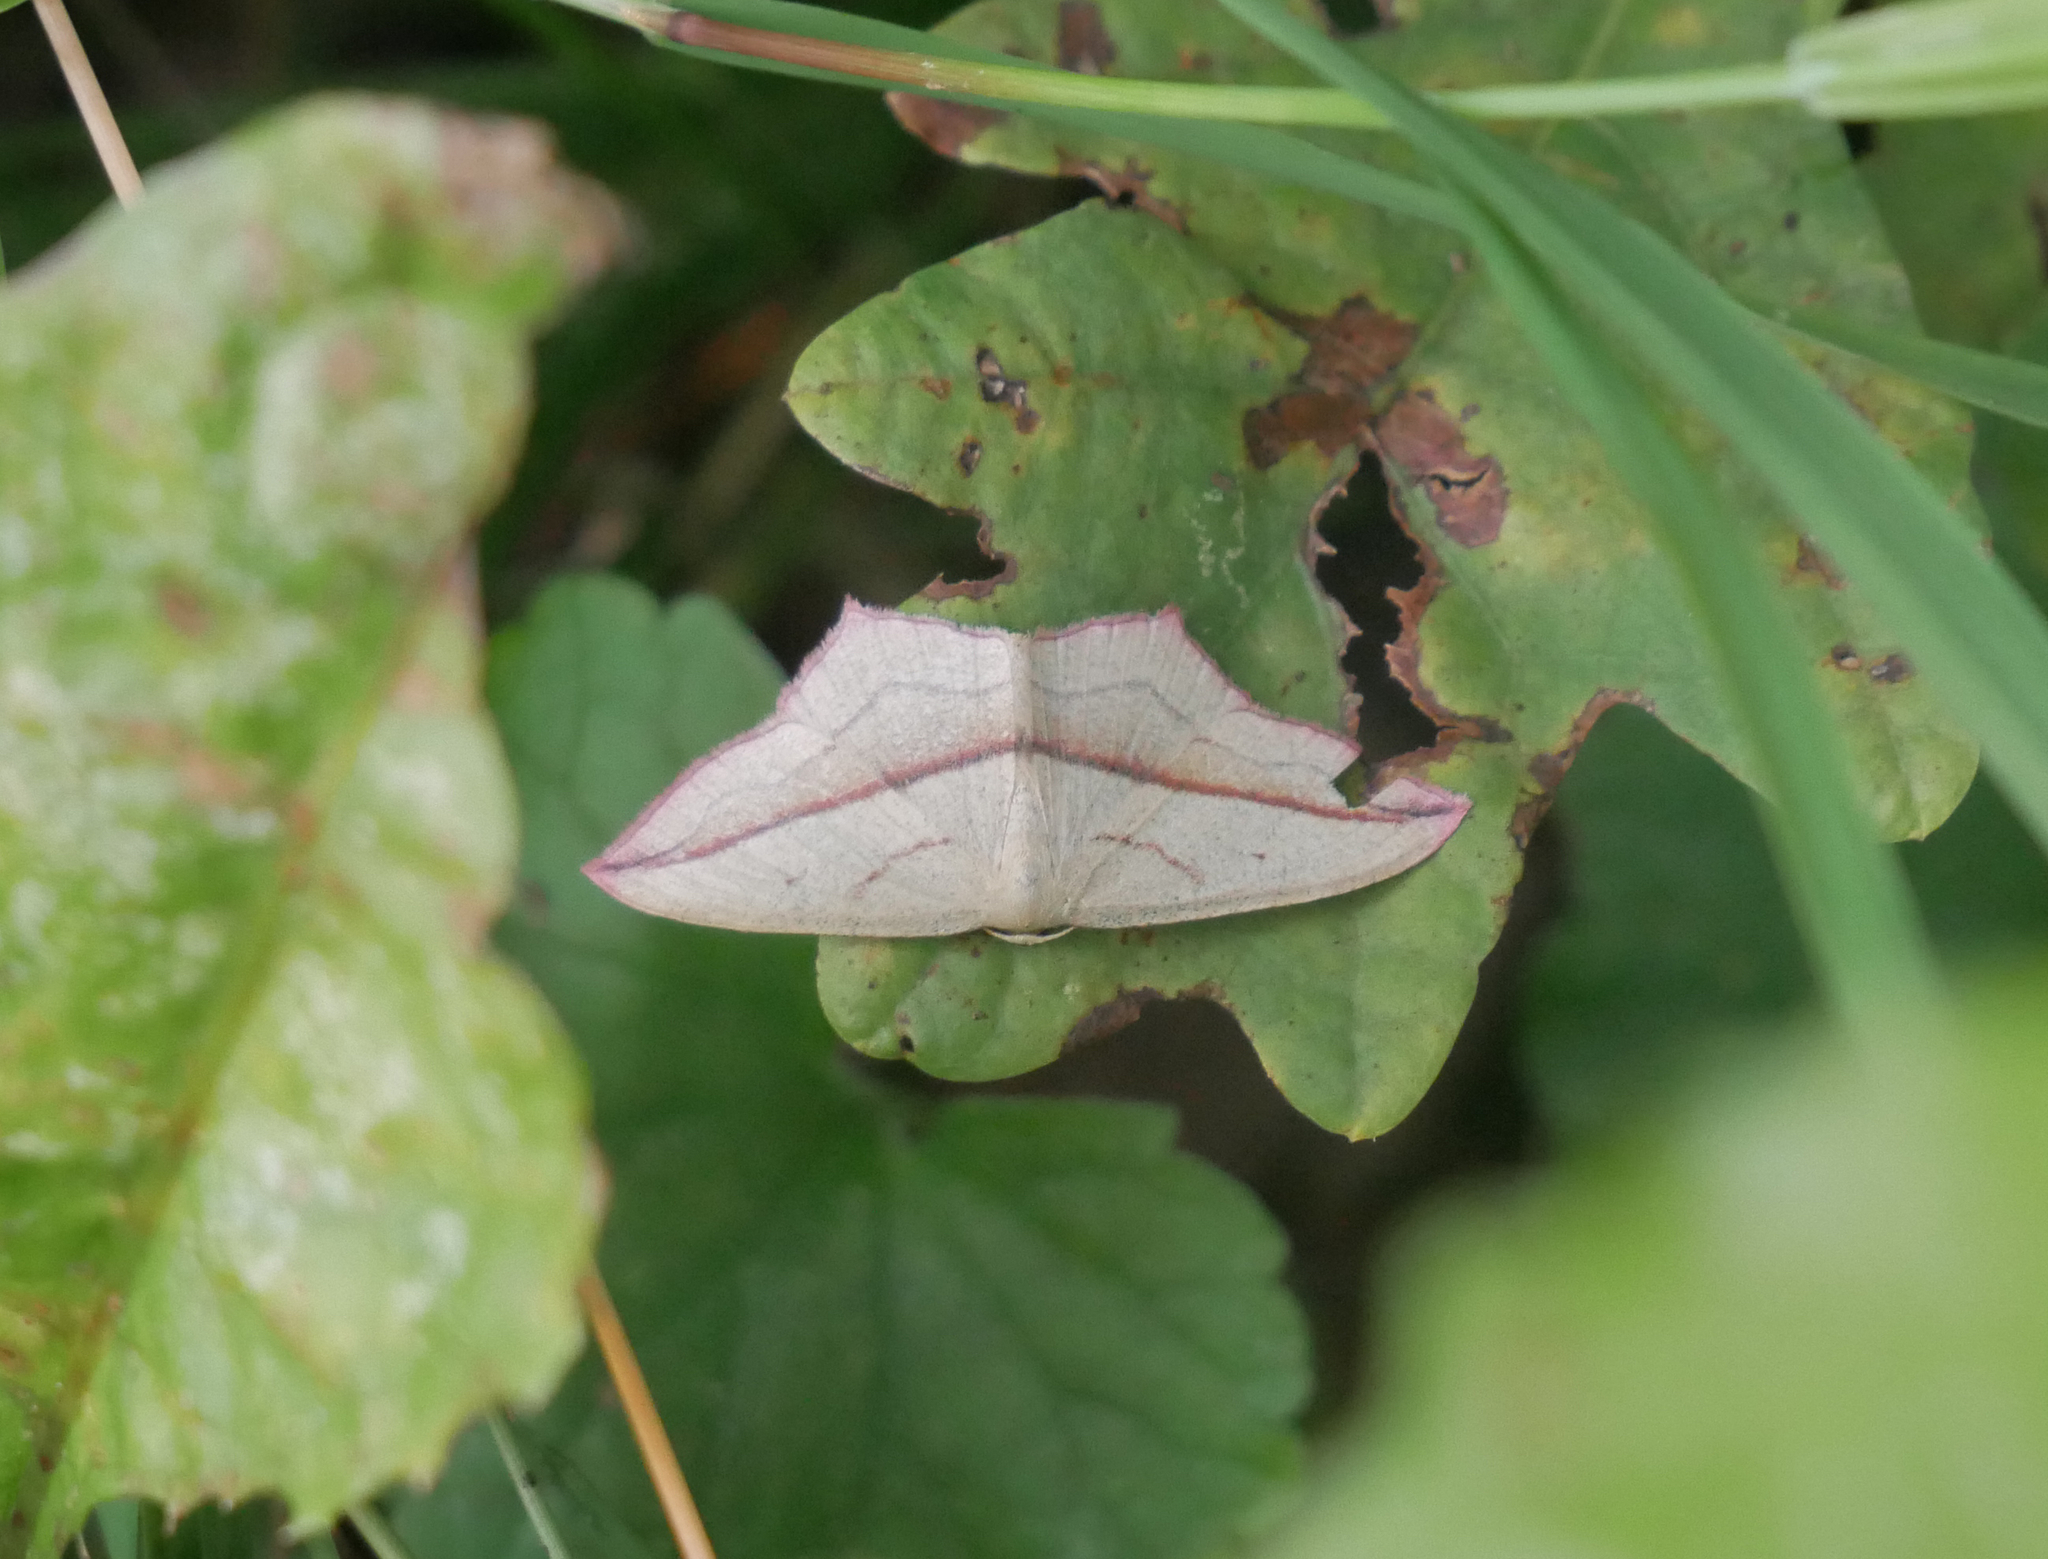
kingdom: Animalia
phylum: Arthropoda
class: Insecta
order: Lepidoptera
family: Geometridae
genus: Timandra
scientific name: Timandra comae
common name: Blood-vein
